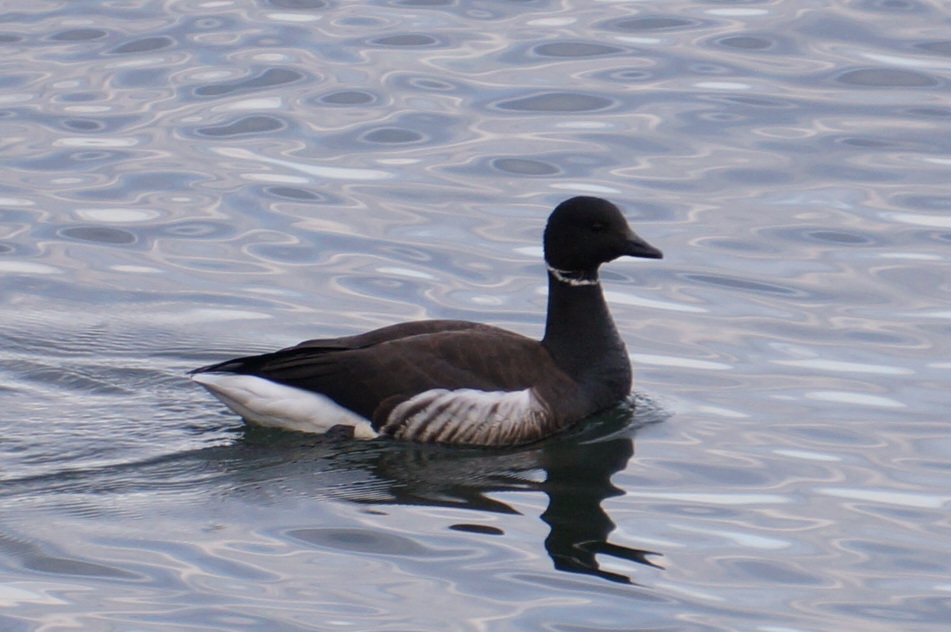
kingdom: Animalia
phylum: Chordata
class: Aves
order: Anseriformes
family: Anatidae
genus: Branta
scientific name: Branta bernicla
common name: Brant goose
